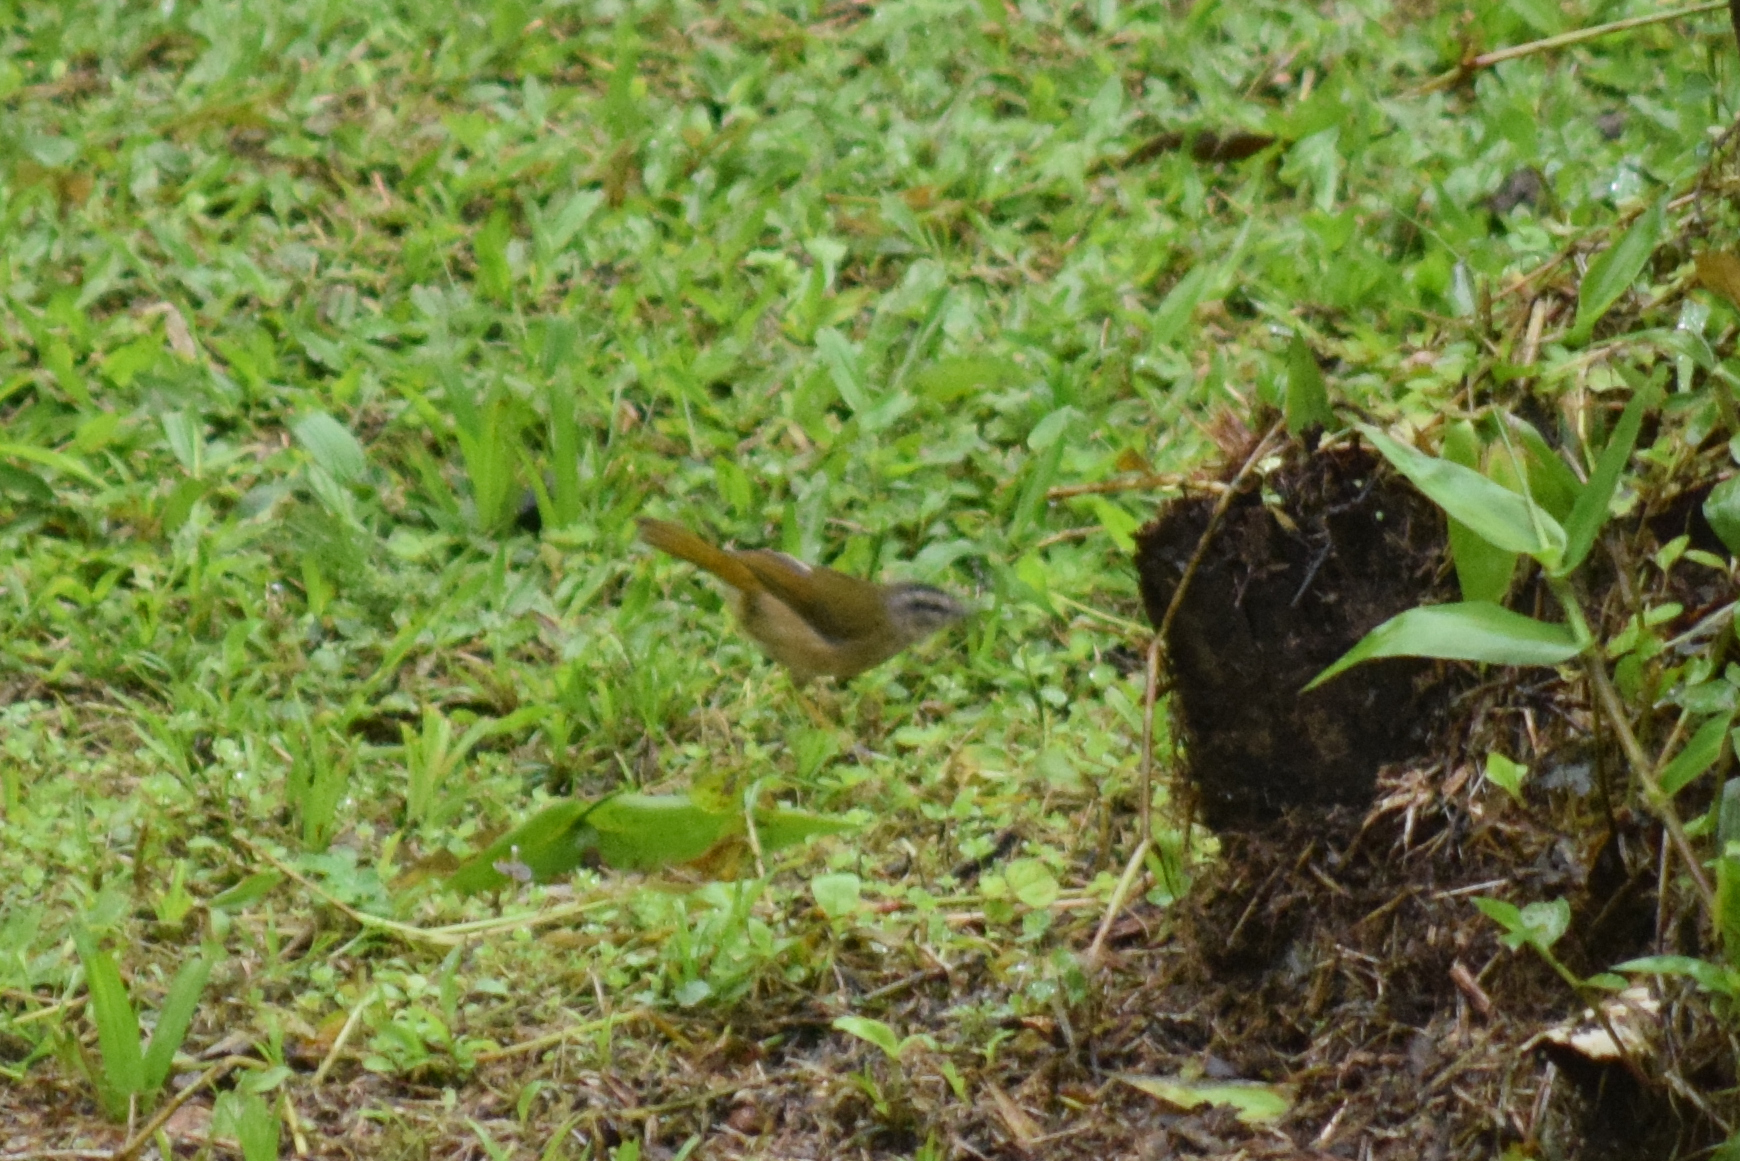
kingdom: Animalia
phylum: Chordata
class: Aves
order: Passeriformes
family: Parulidae
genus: Myiothlypis
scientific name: Myiothlypis rivularis
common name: Riverbank warbler
